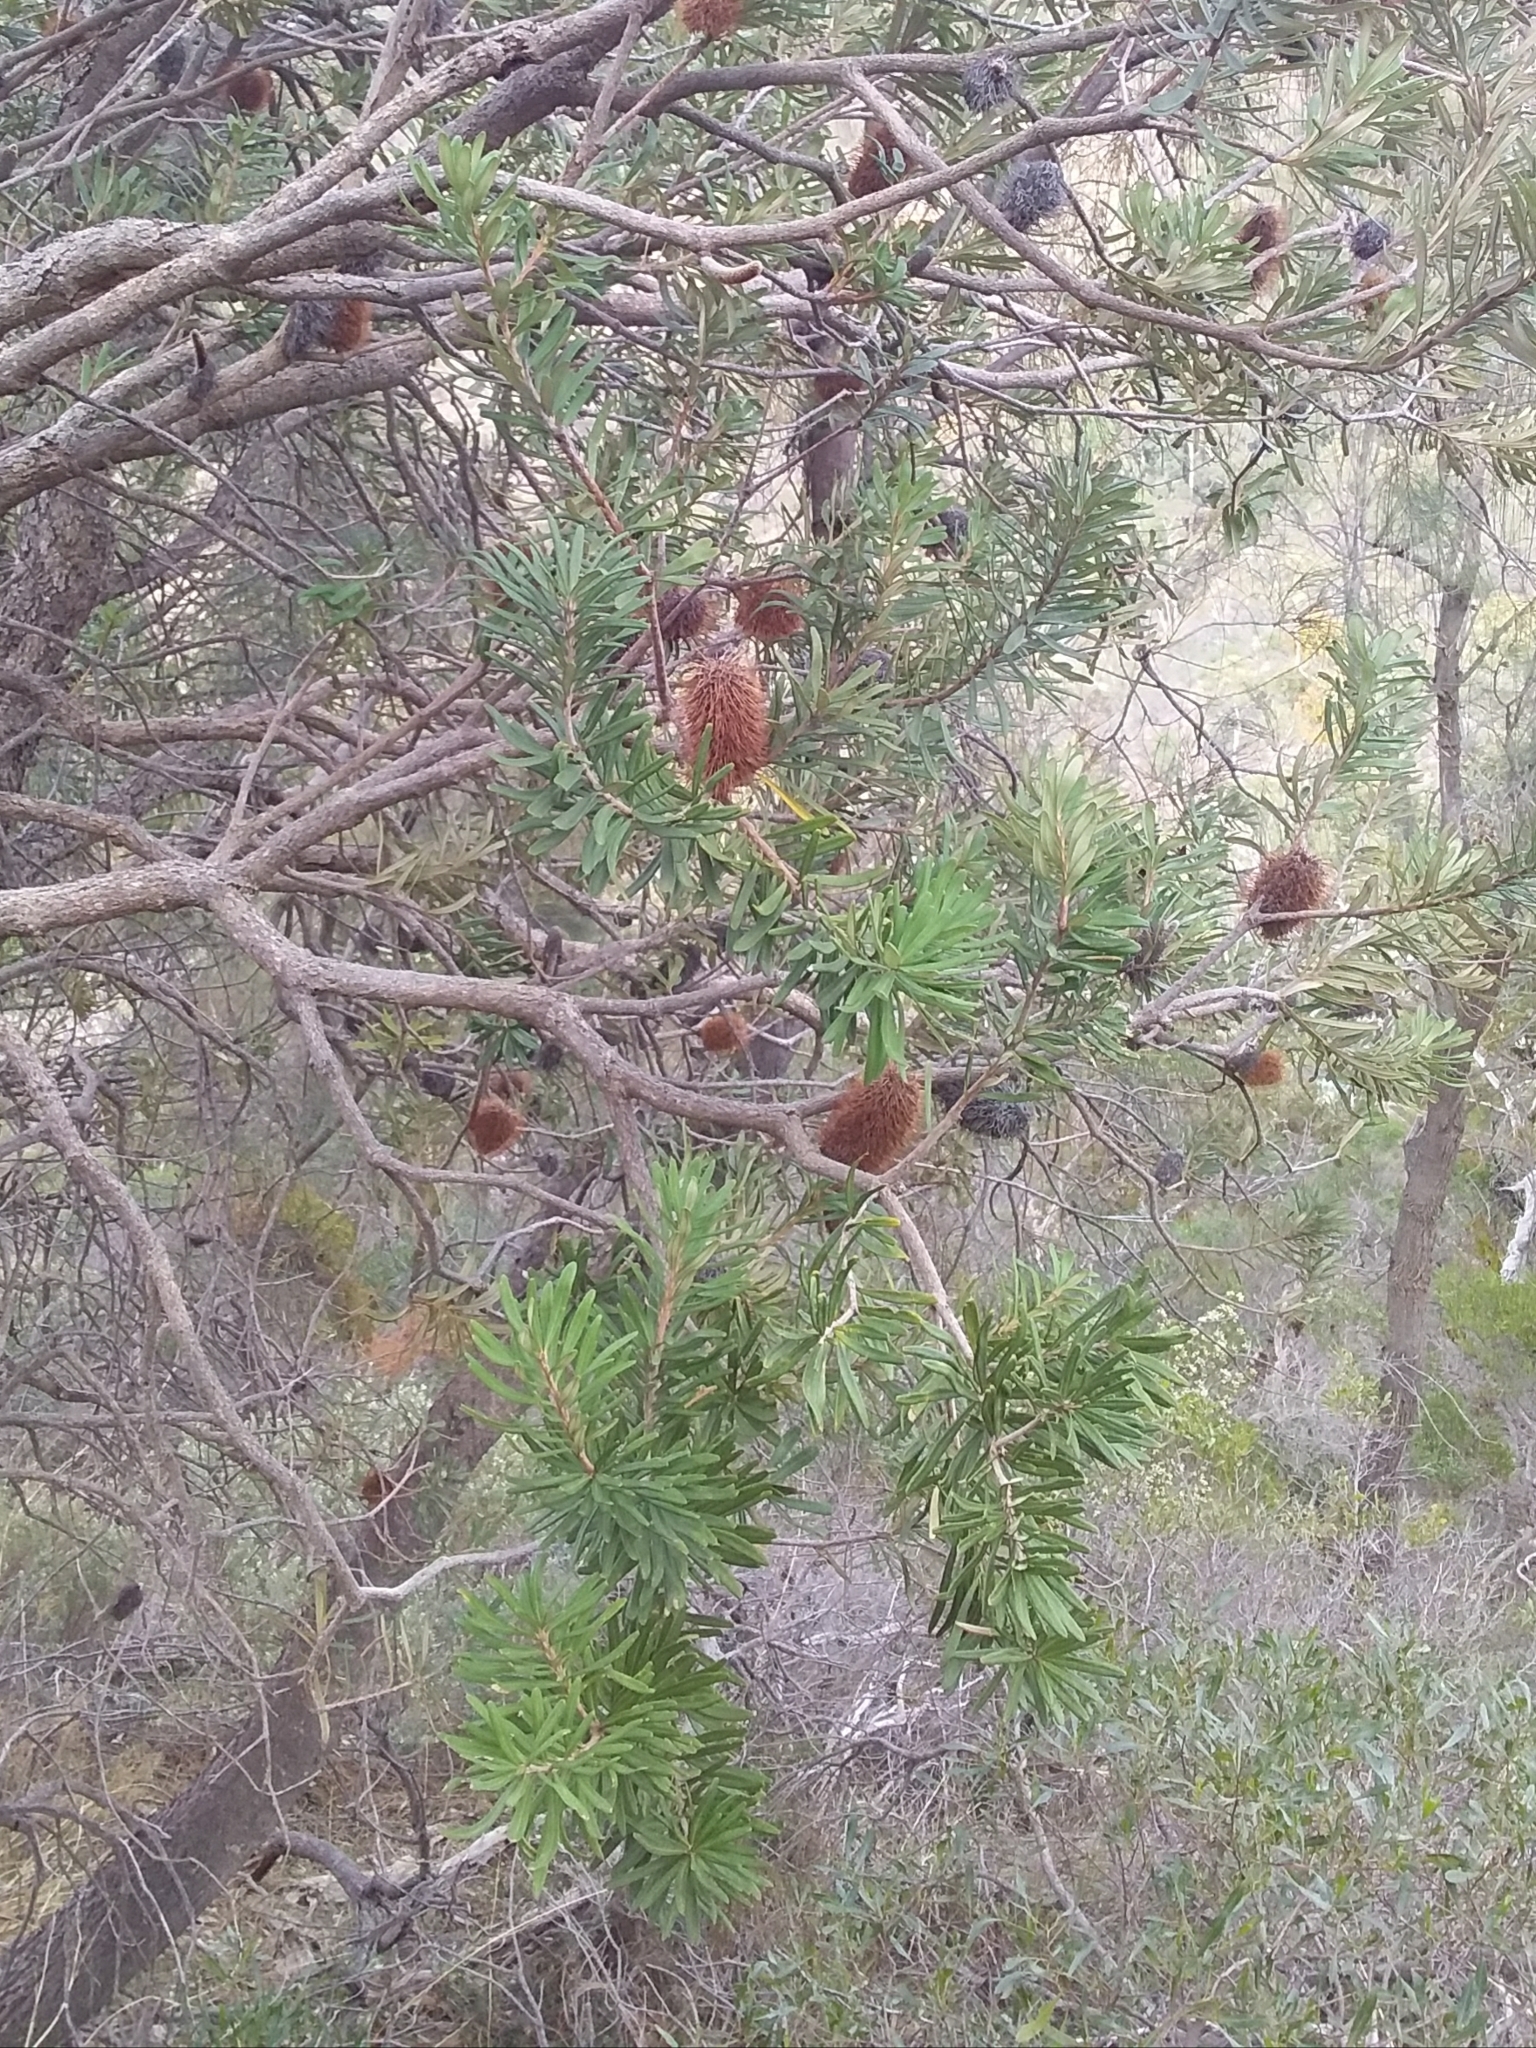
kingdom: Plantae
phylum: Tracheophyta
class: Magnoliopsida
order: Proteales
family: Proteaceae
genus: Banksia
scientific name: Banksia marginata
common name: Silver banksia
